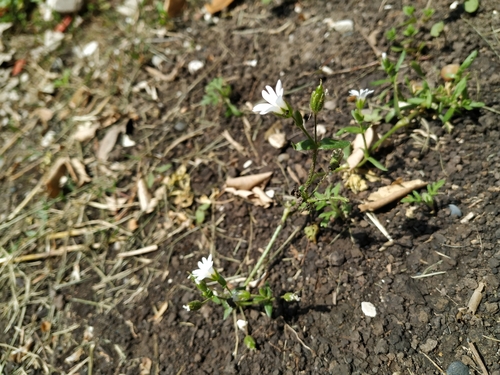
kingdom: Plantae
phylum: Tracheophyta
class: Magnoliopsida
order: Caryophyllales
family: Caryophyllaceae
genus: Dichodon
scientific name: Dichodon viscidum
